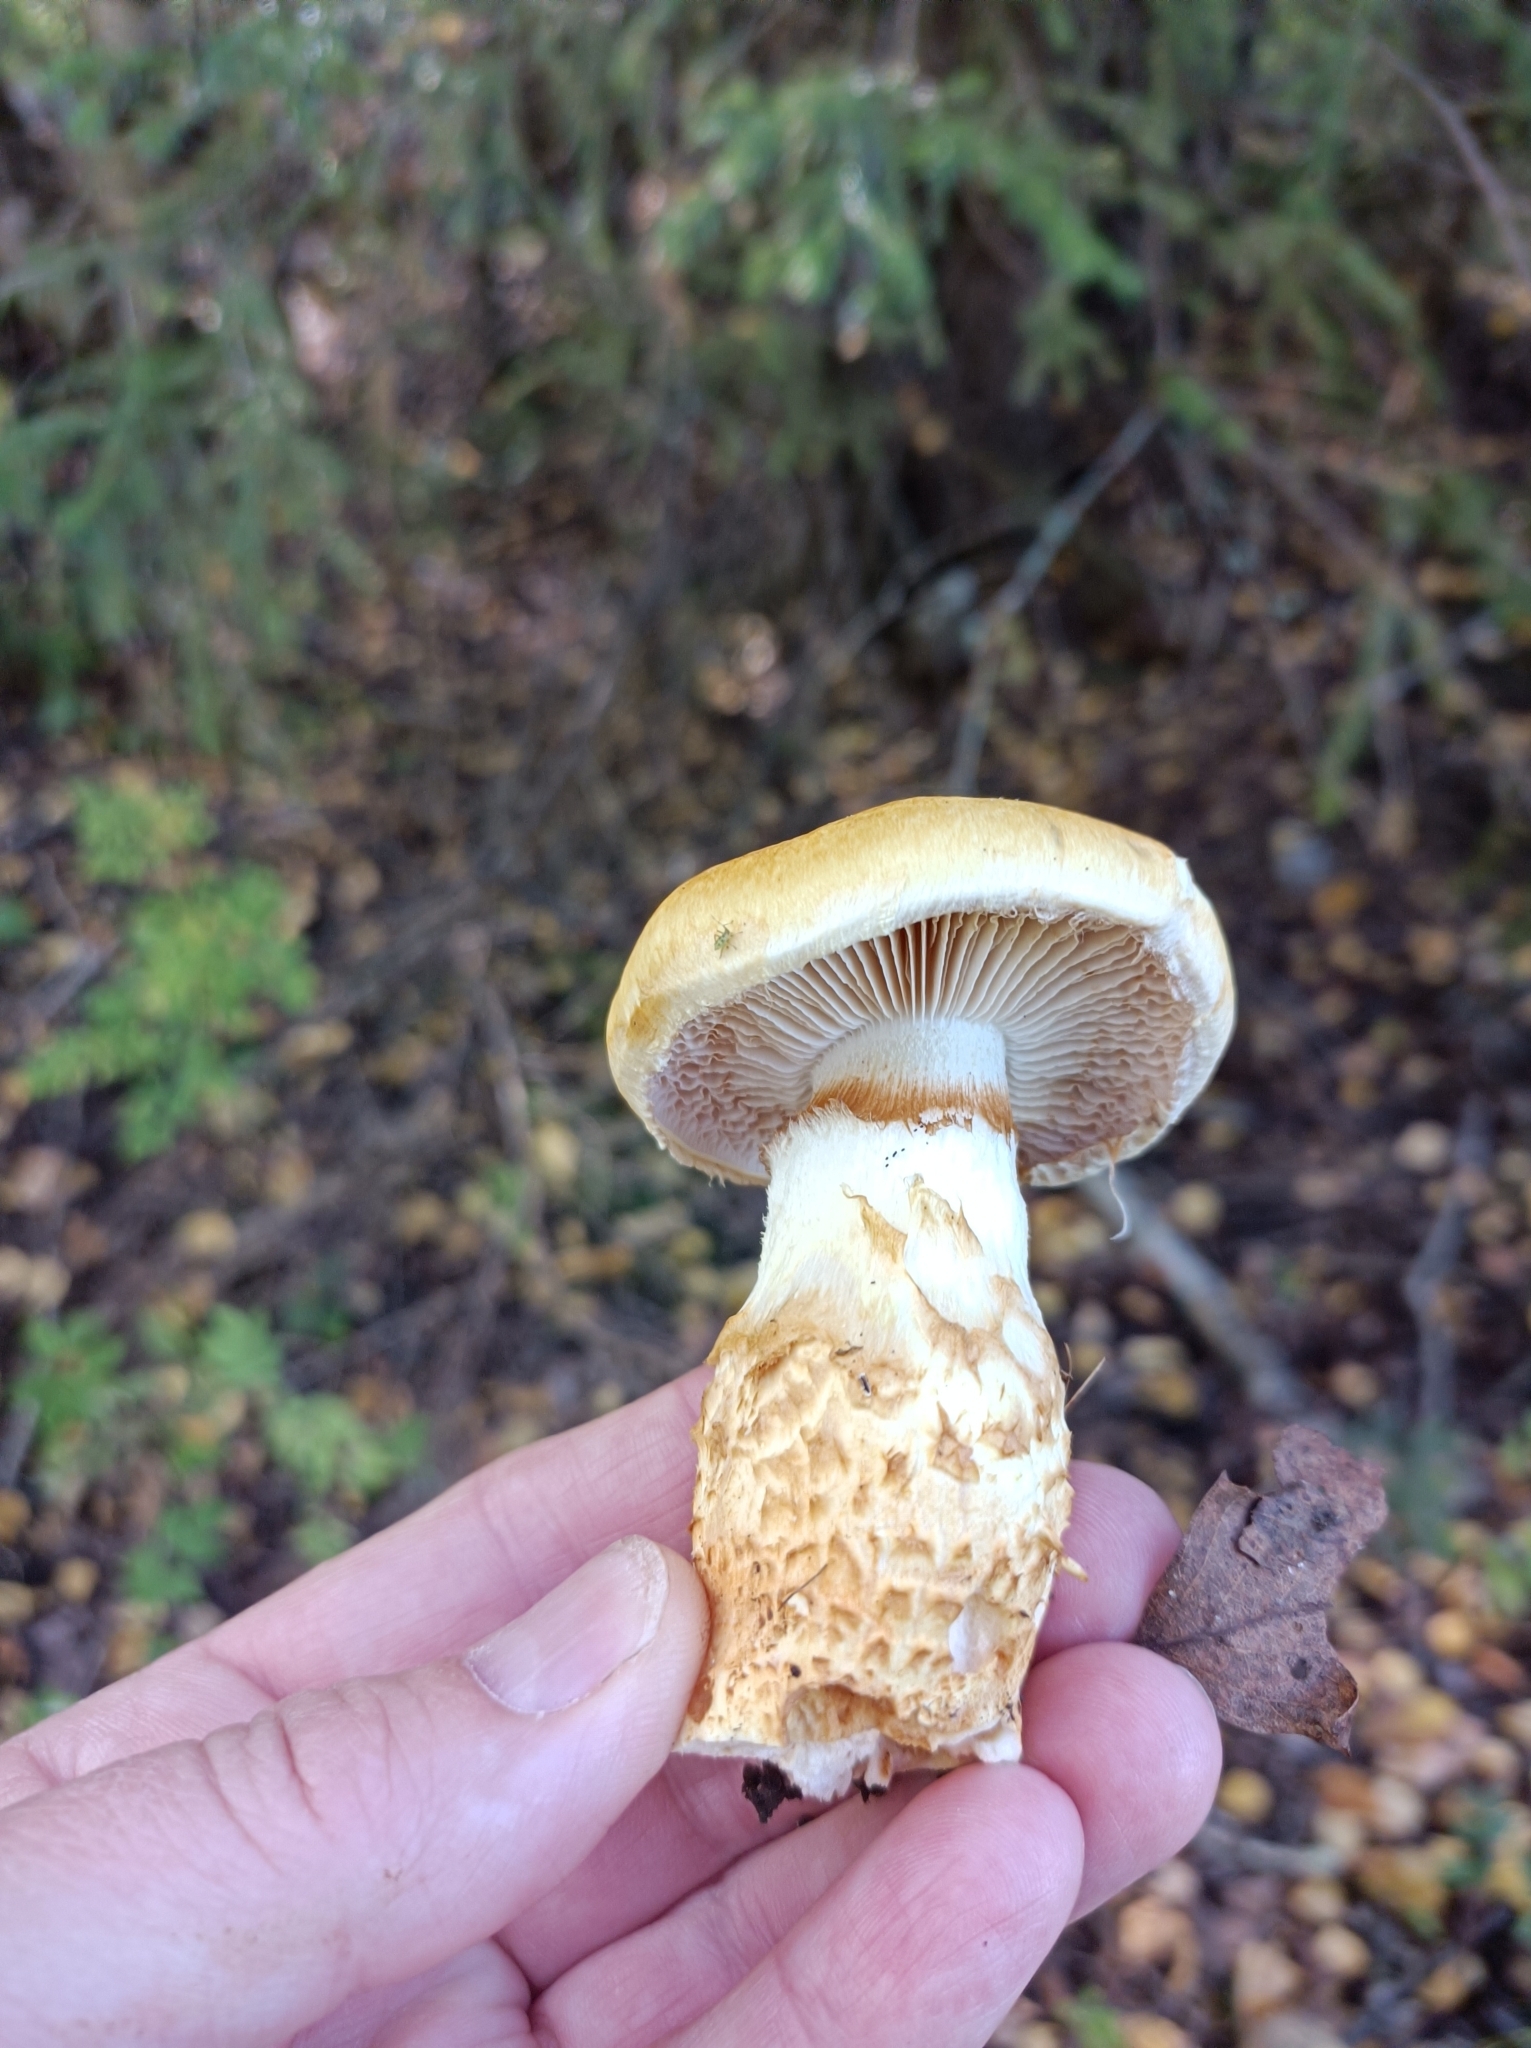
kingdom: Fungi
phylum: Basidiomycota
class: Agaricomycetes
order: Agaricales
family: Cortinariaceae
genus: Phlegmacium
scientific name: Phlegmacium triumphans
